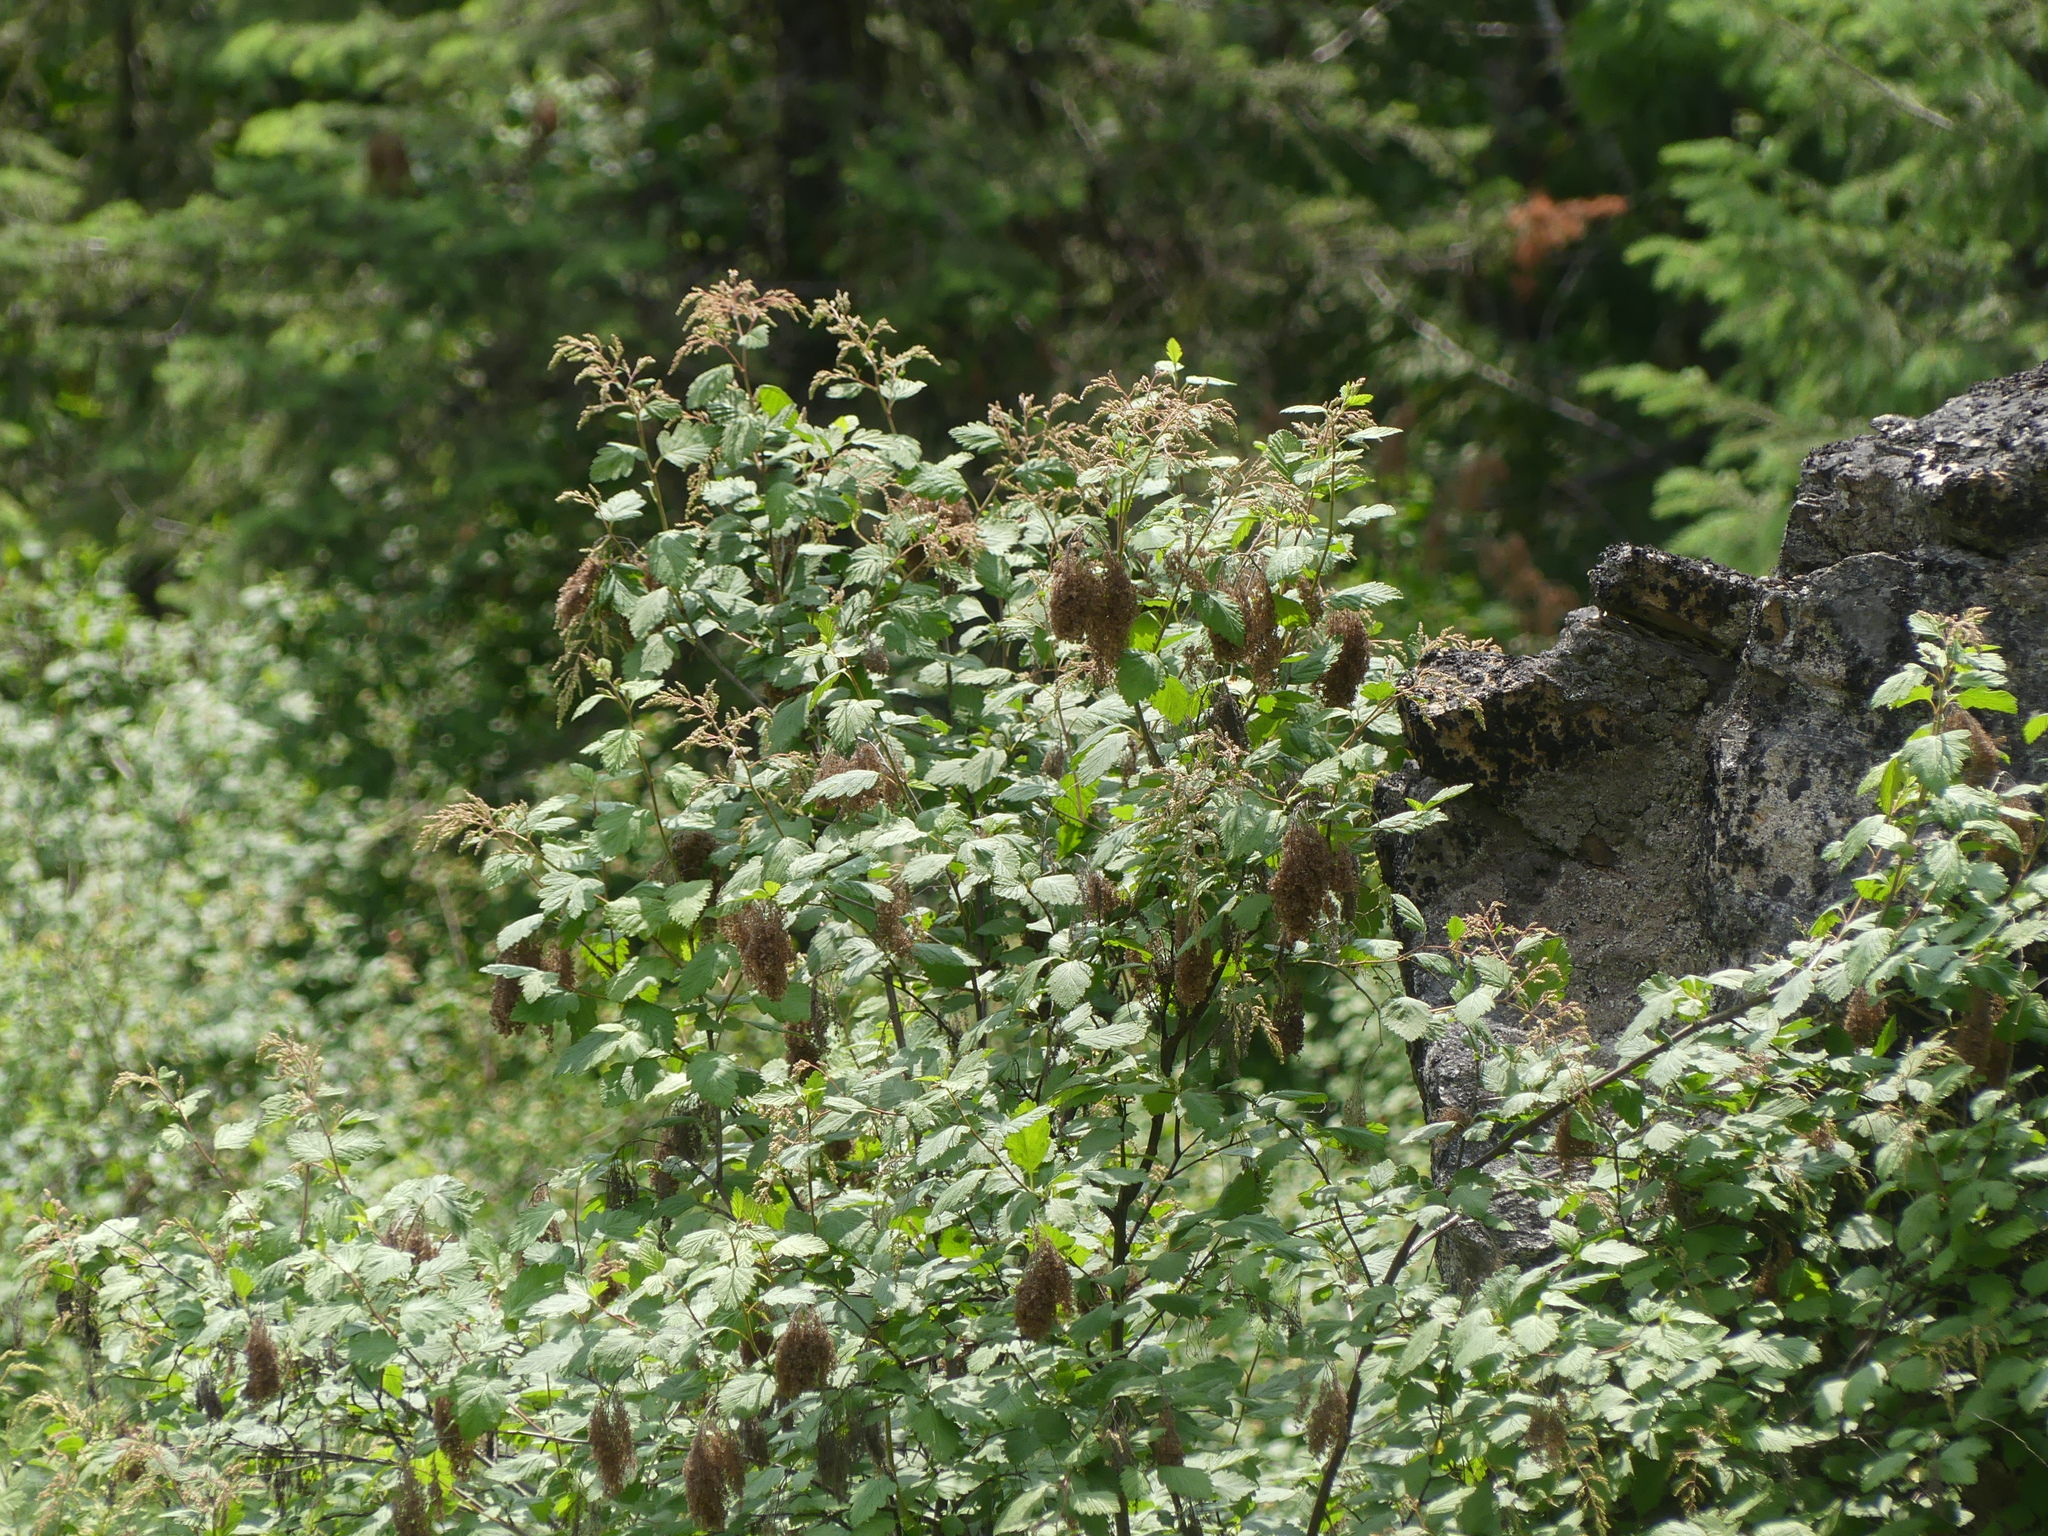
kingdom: Plantae
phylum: Tracheophyta
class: Magnoliopsida
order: Rosales
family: Rosaceae
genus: Holodiscus
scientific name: Holodiscus discolor
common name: Oceanspray
